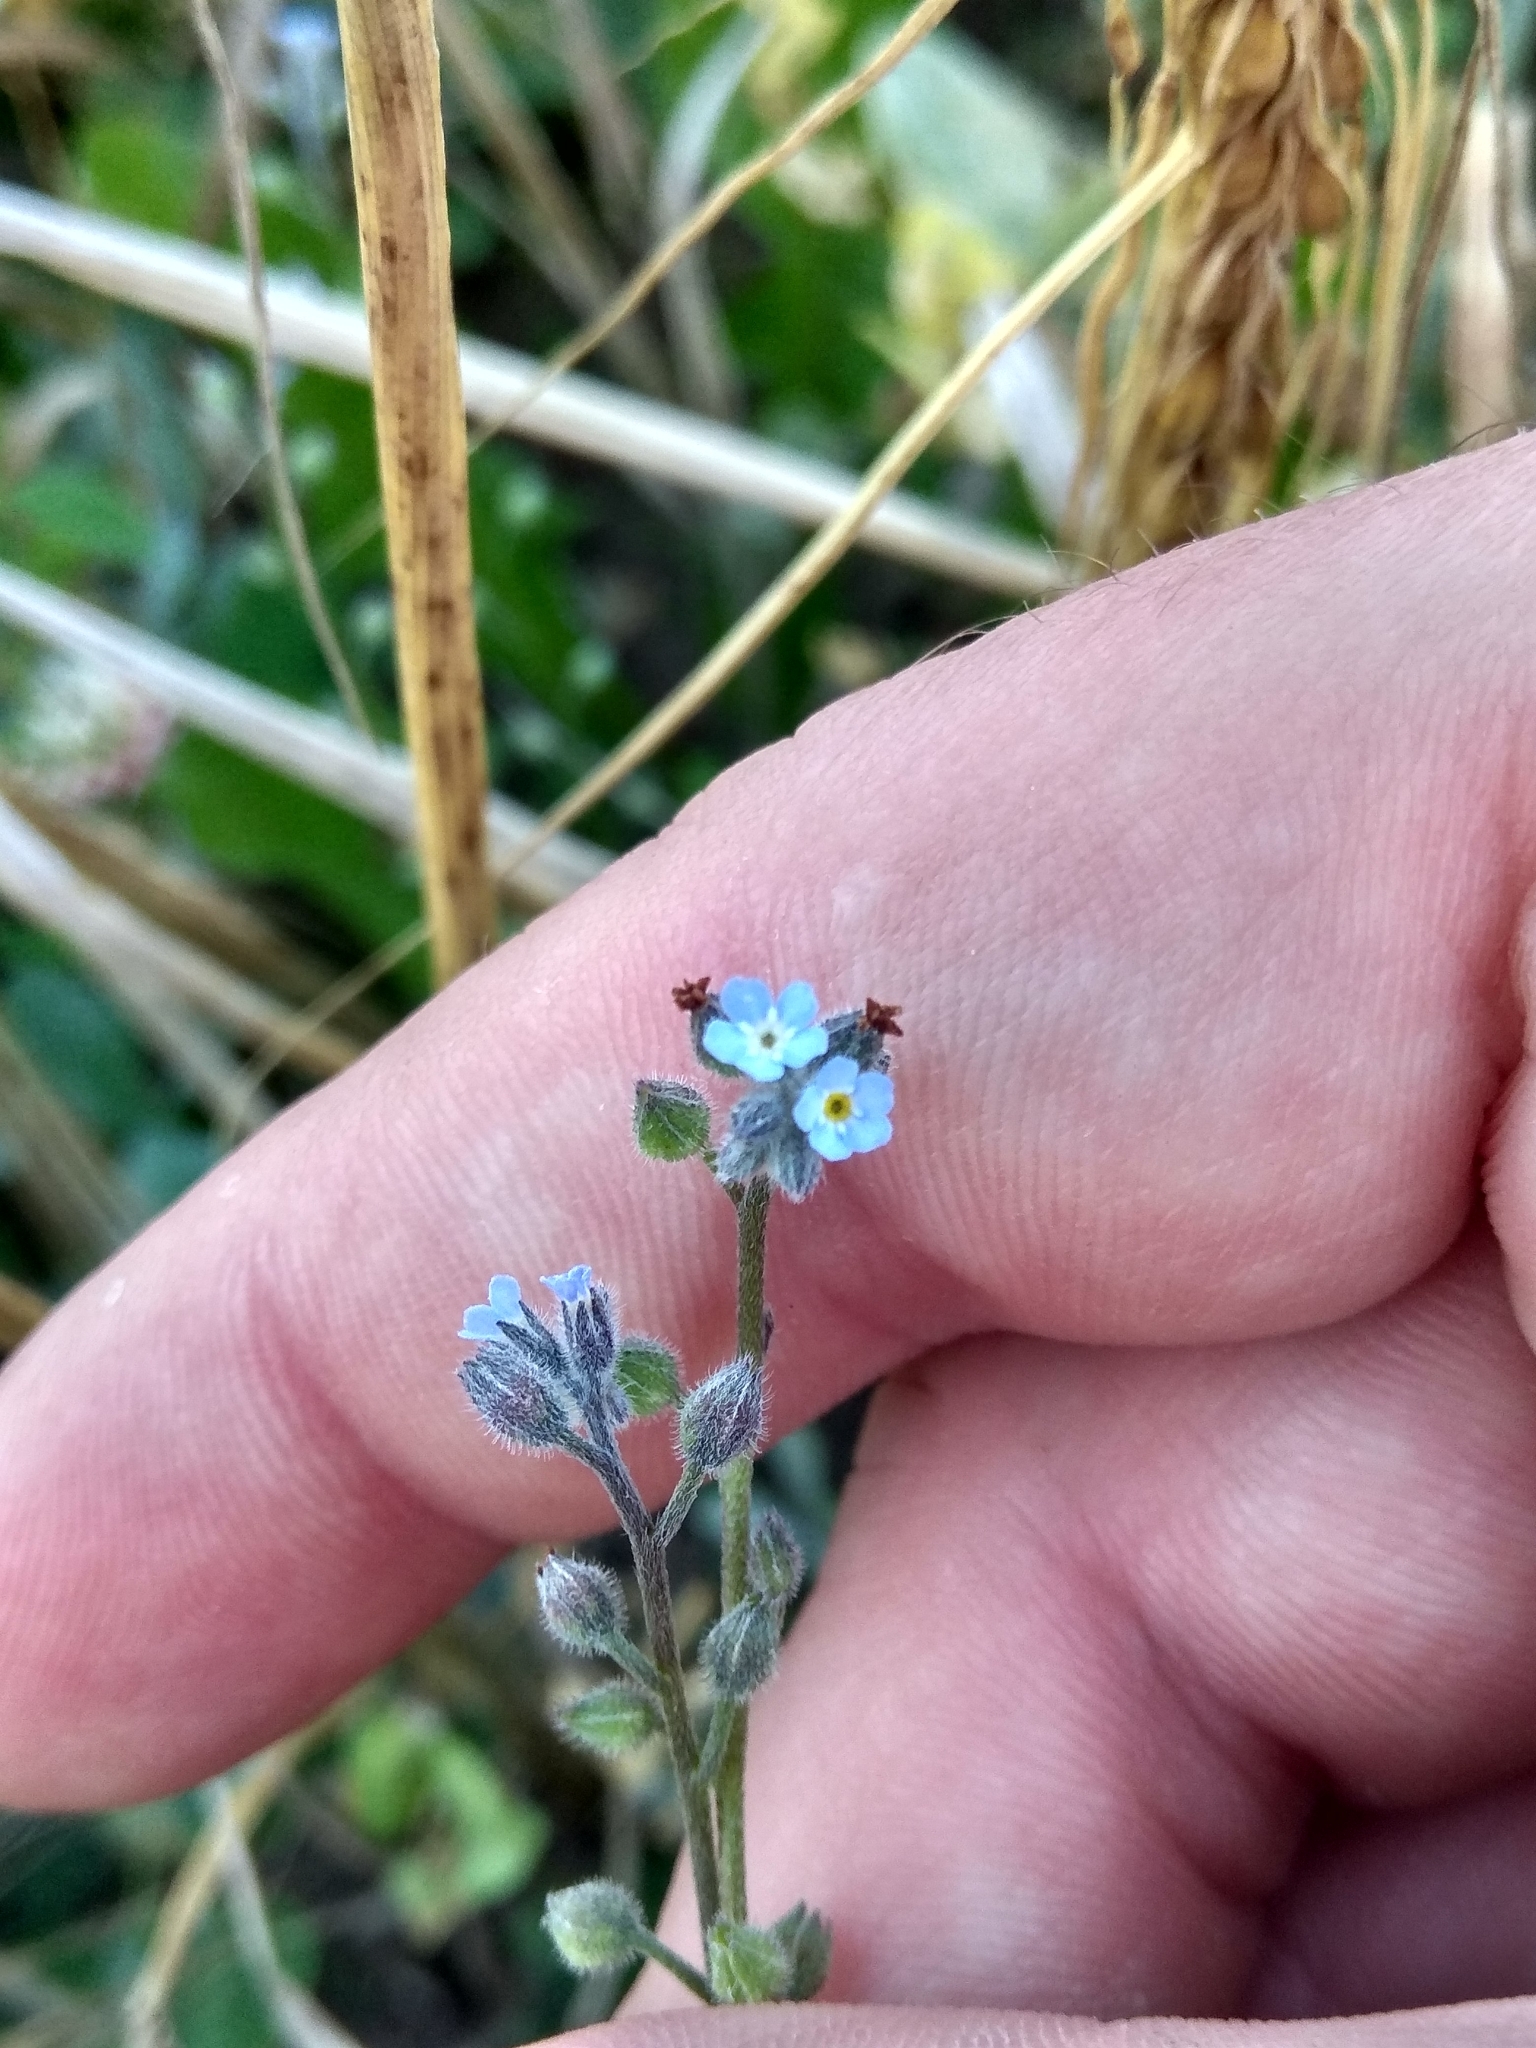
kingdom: Plantae
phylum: Tracheophyta
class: Magnoliopsida
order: Boraginales
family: Boraginaceae
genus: Myosotis
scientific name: Myosotis arvensis
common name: Field forget-me-not
